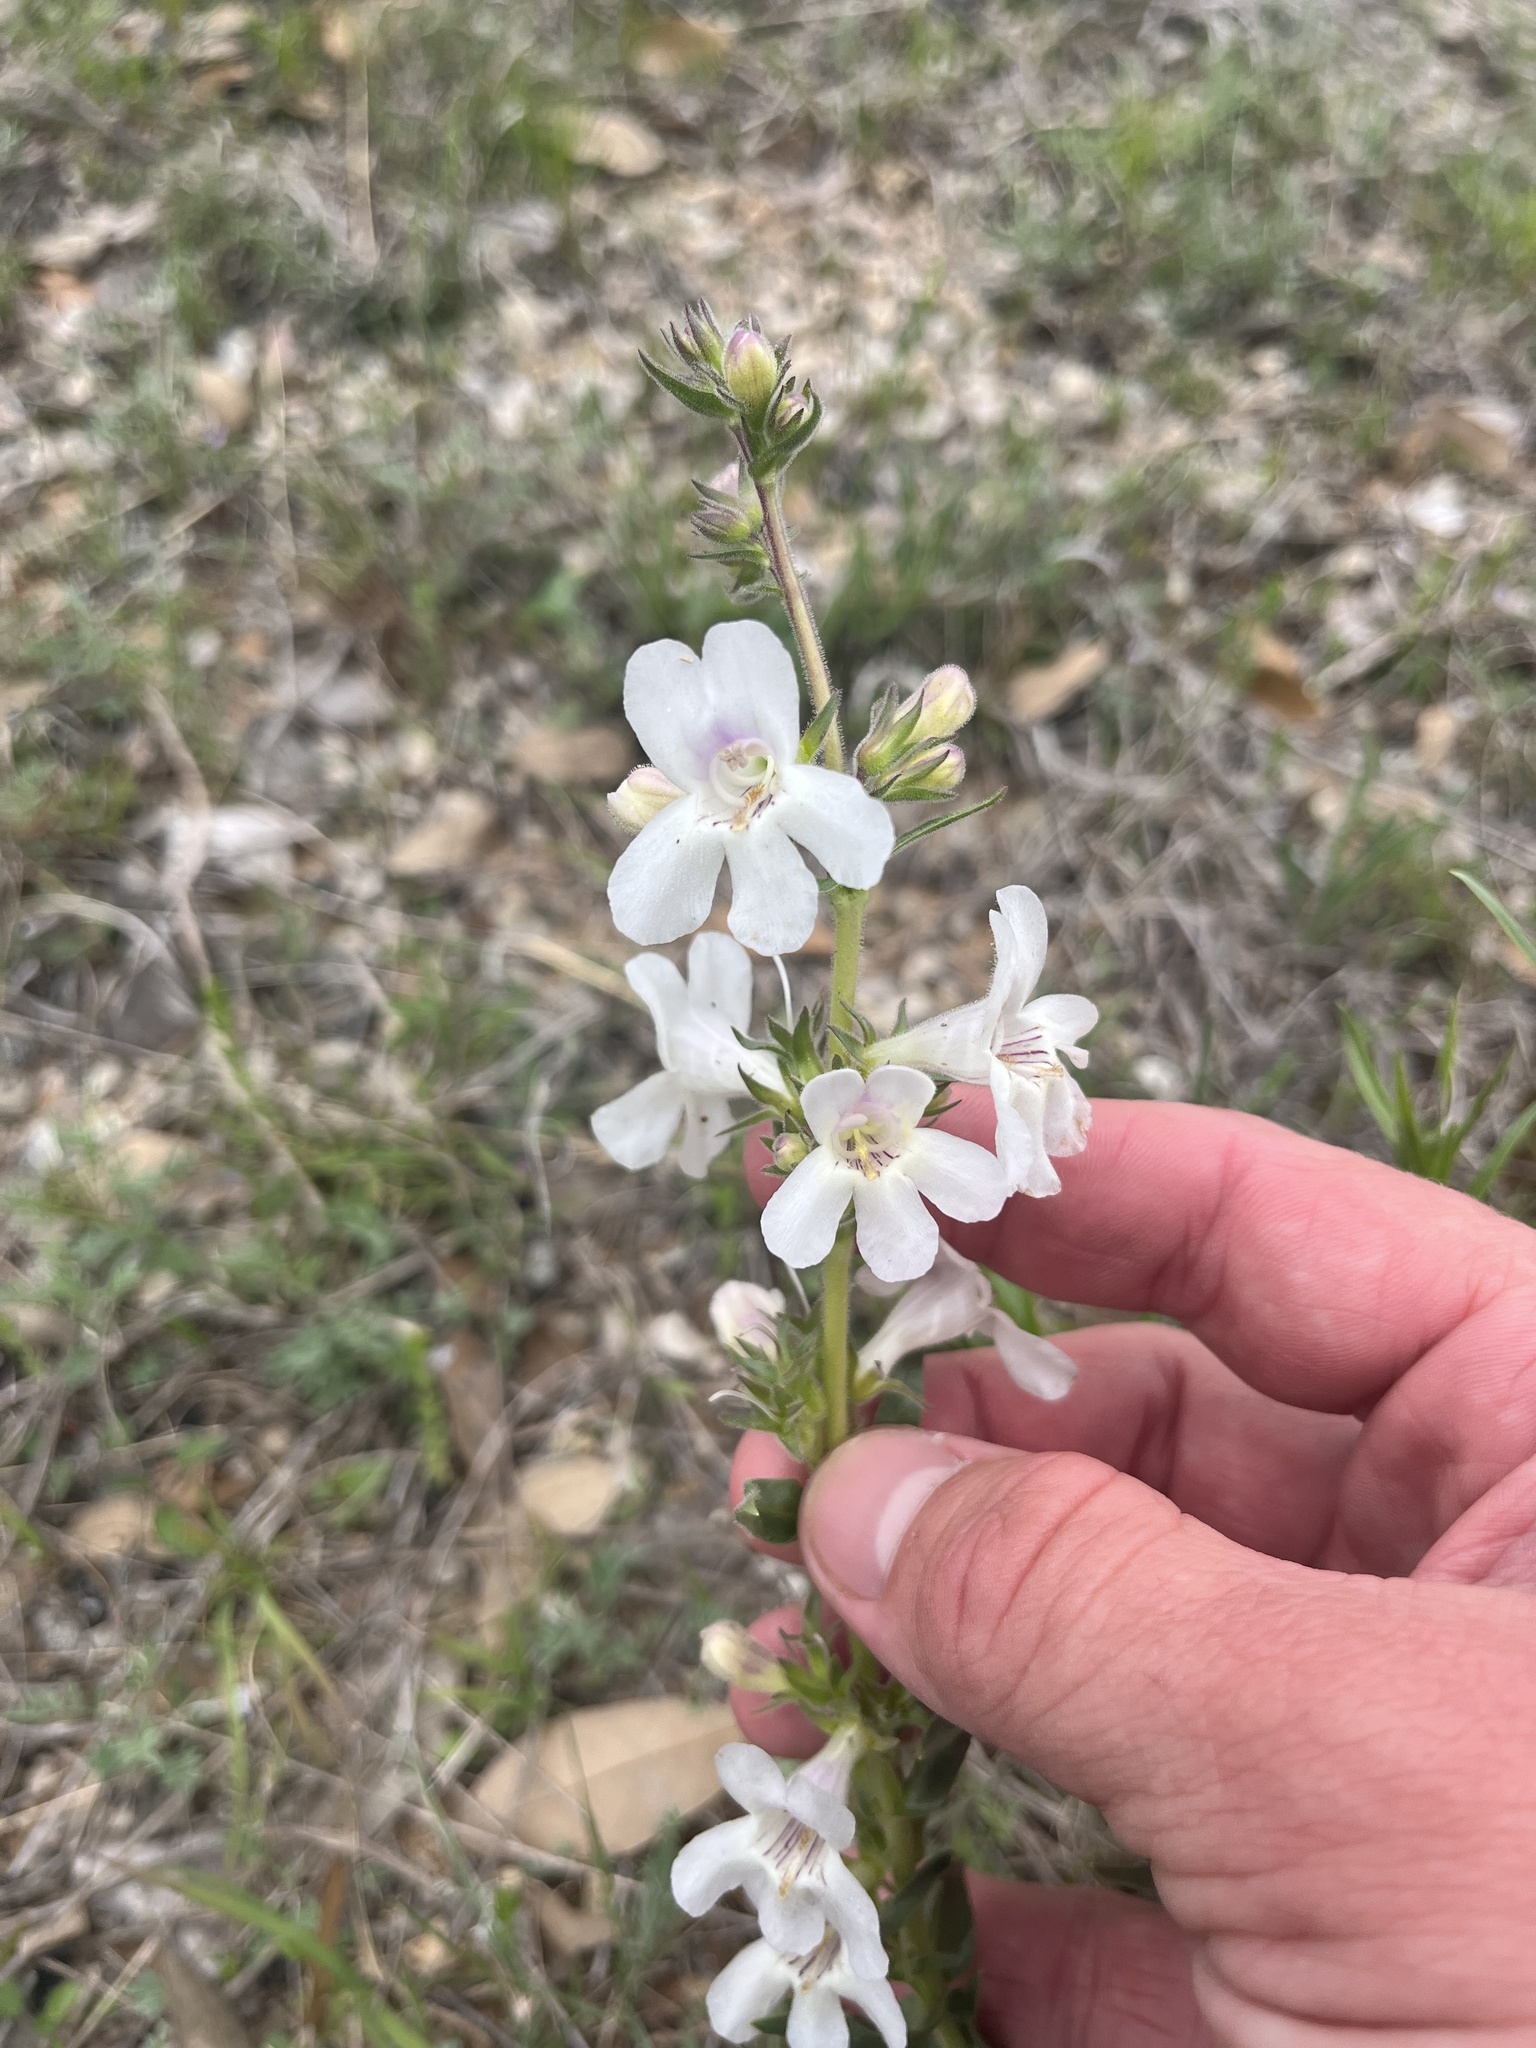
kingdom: Plantae
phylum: Tracheophyta
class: Magnoliopsida
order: Lamiales
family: Plantaginaceae
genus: Penstemon
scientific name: Penstemon guadalupensis
